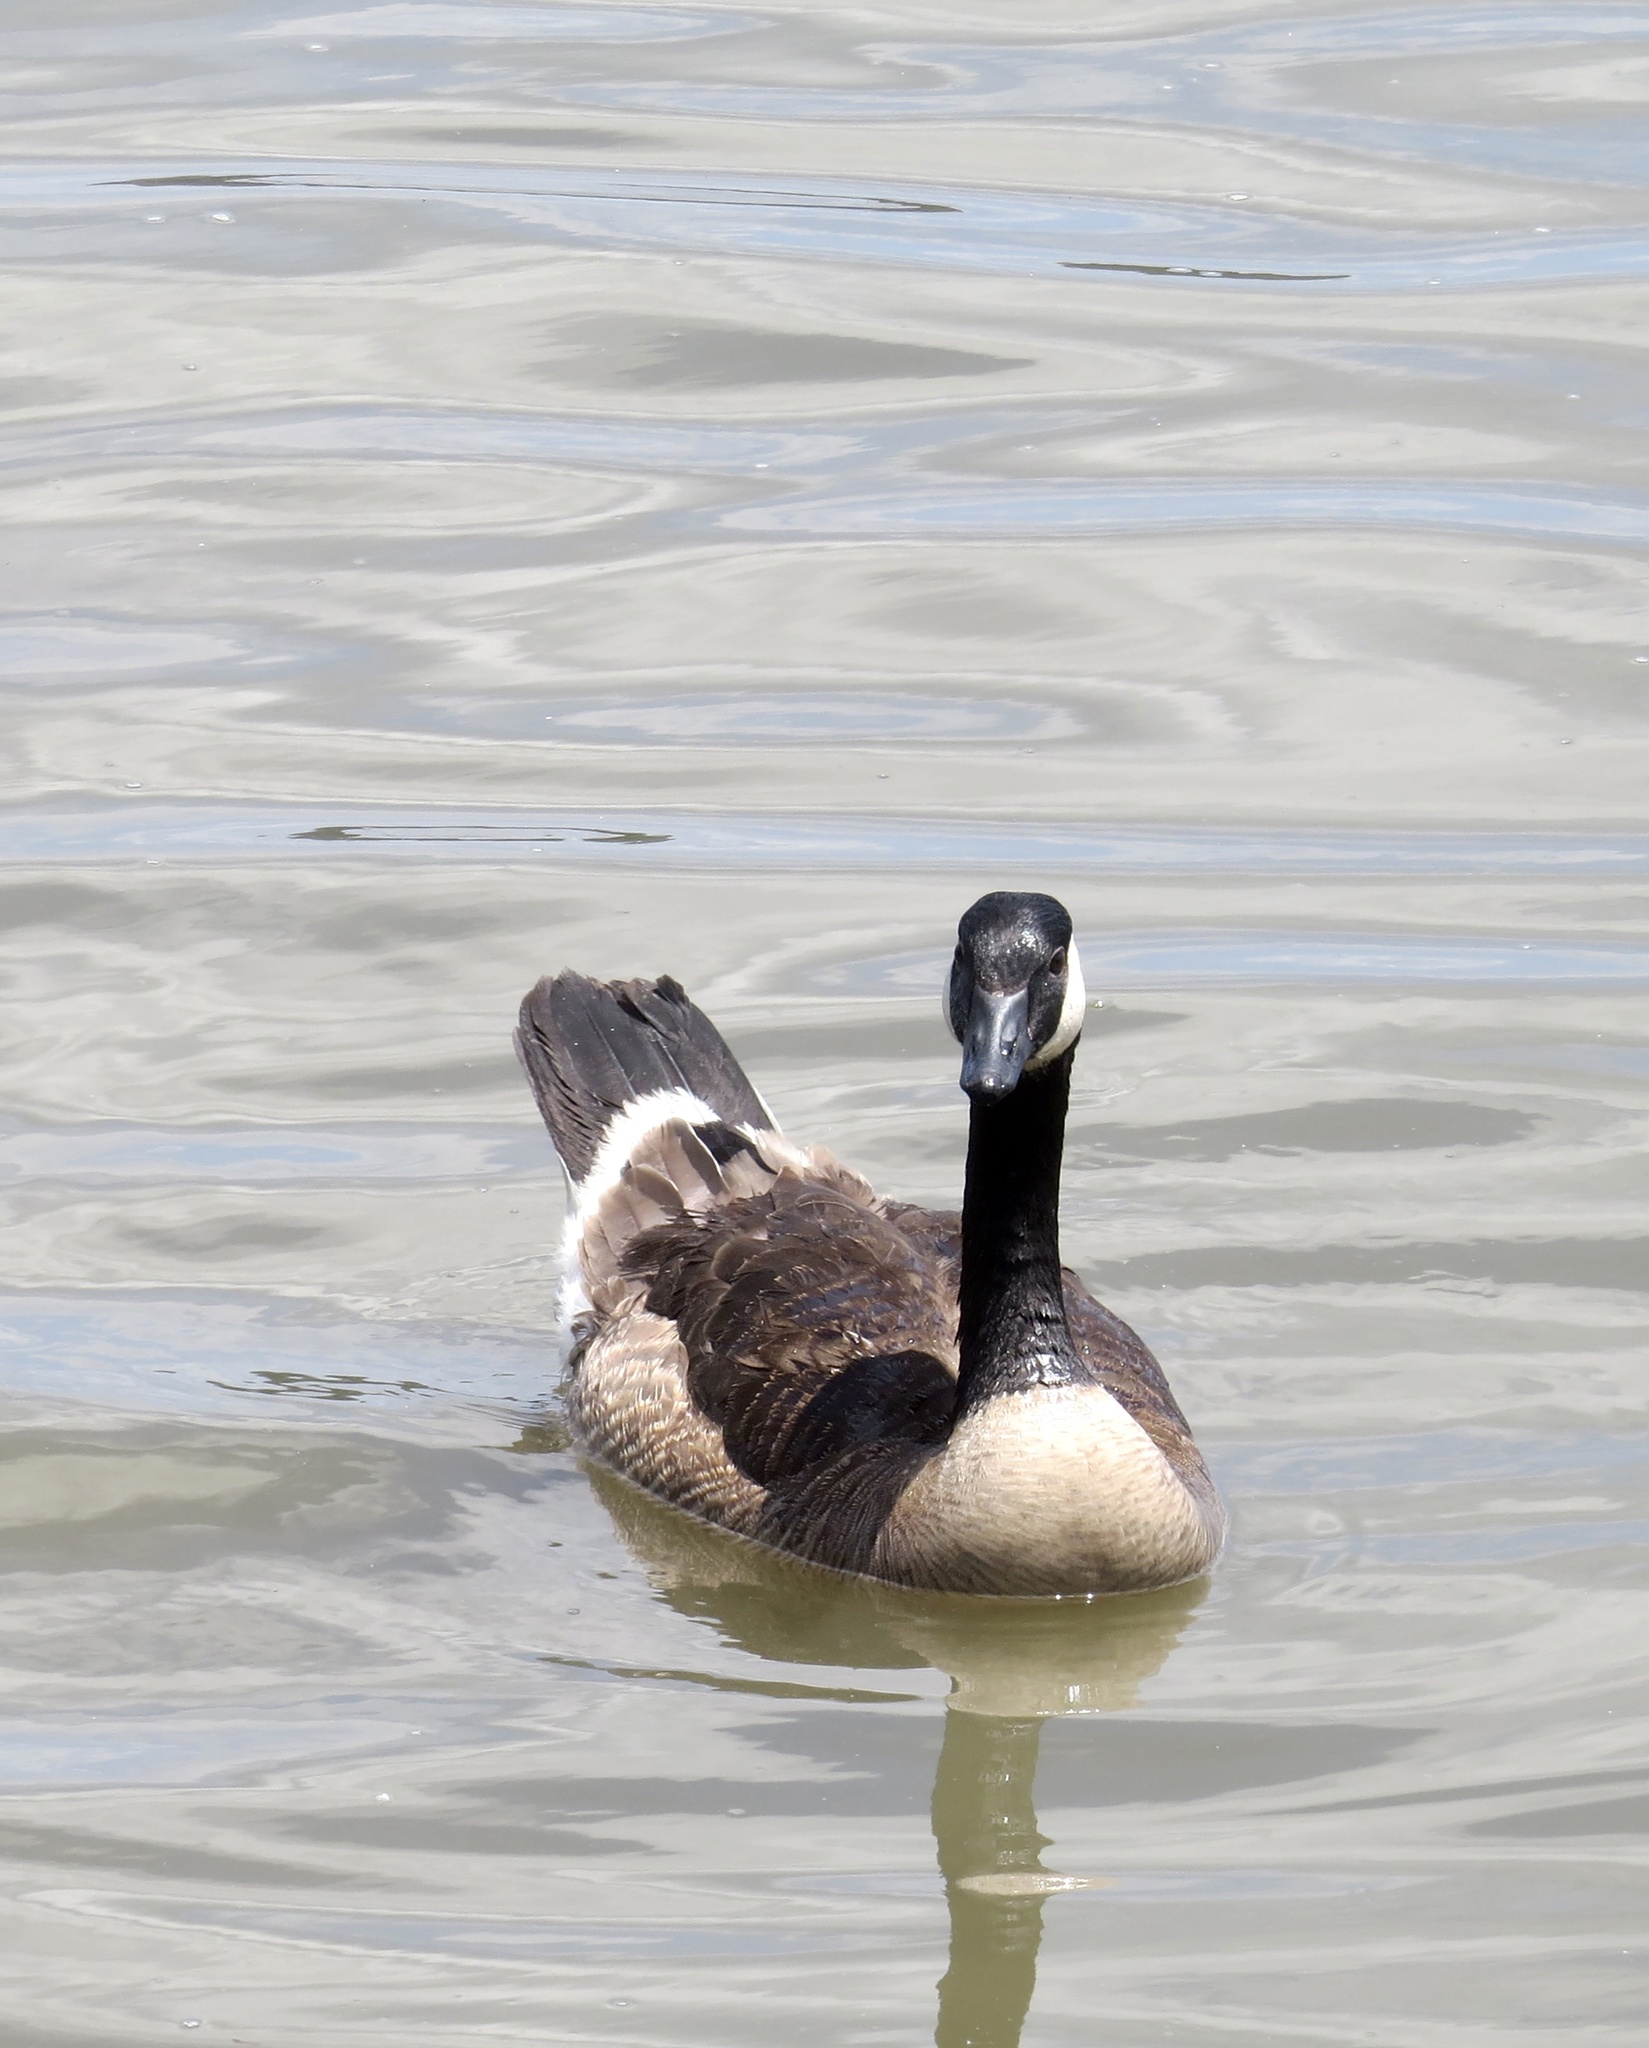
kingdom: Animalia
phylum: Chordata
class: Aves
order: Anseriformes
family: Anatidae
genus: Branta
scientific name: Branta canadensis
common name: Canada goose
